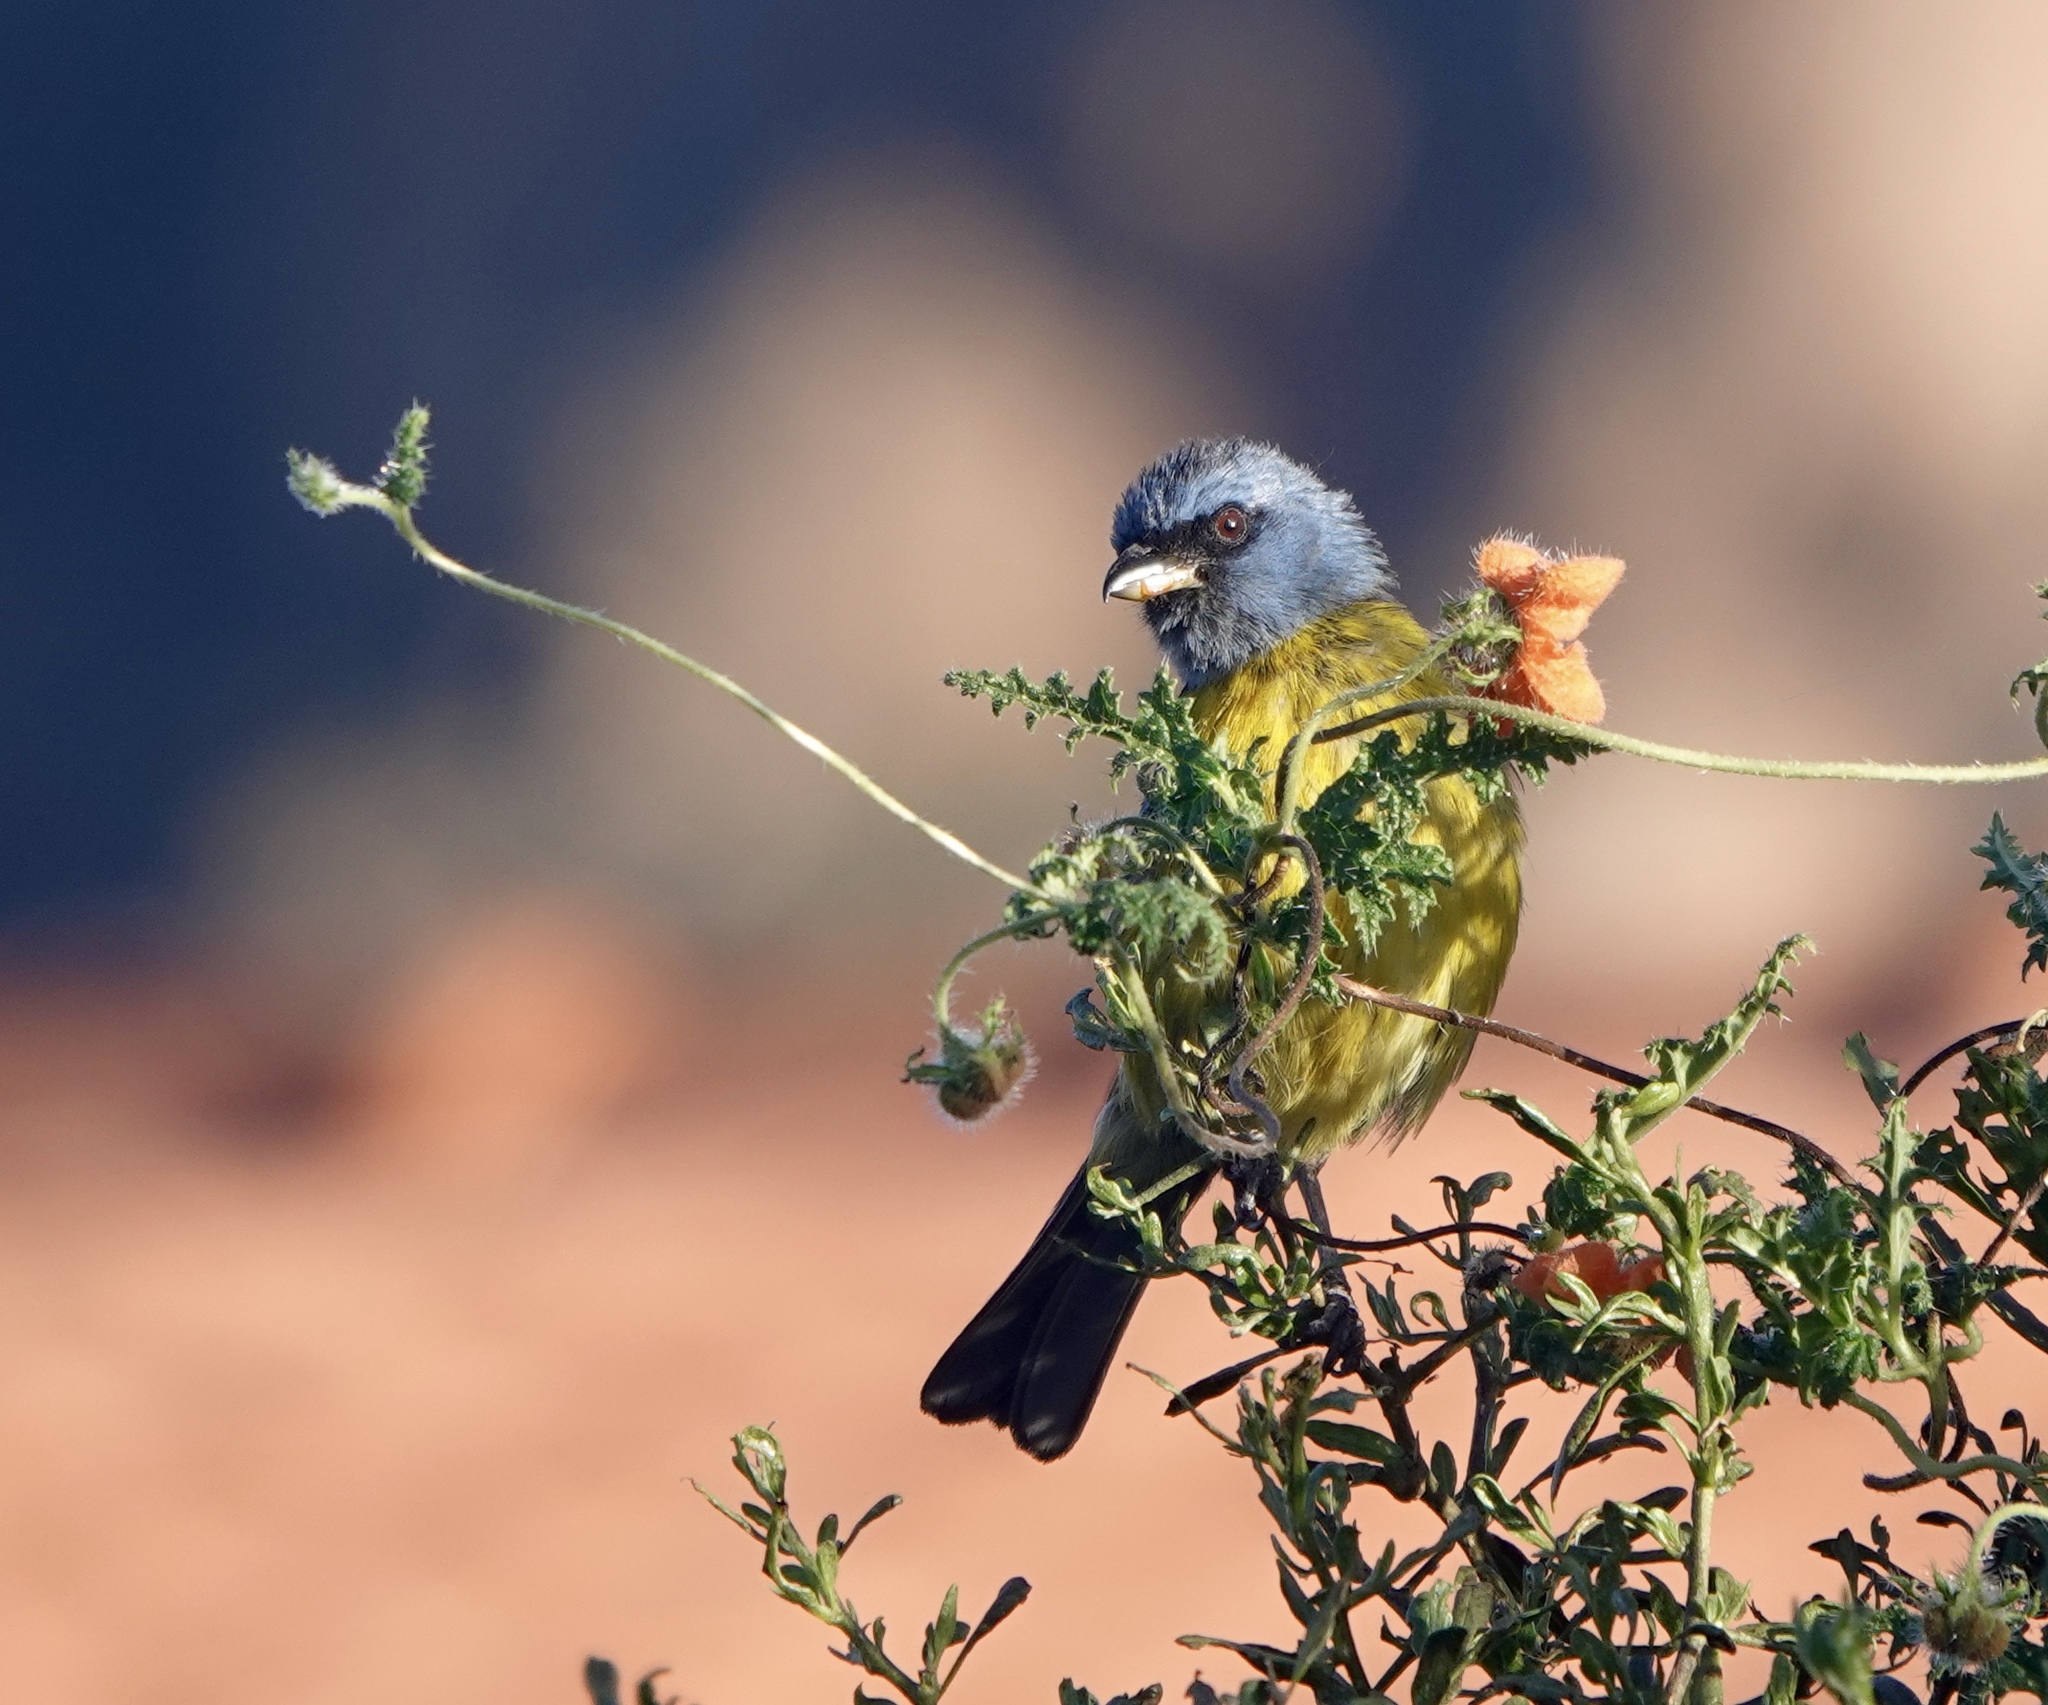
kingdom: Animalia
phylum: Chordata
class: Aves
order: Passeriformes
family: Thraupidae
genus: Rauenia
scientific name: Rauenia bonariensis
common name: Blue-and-yellow tanager
